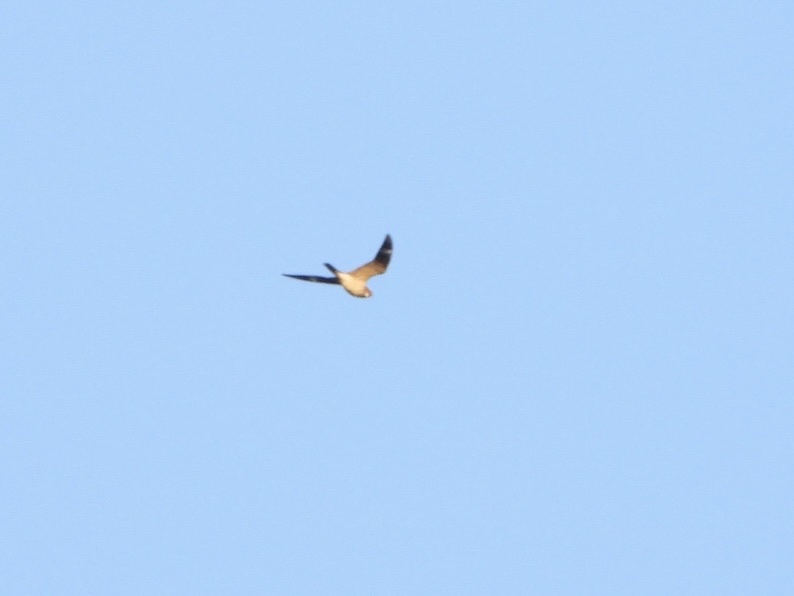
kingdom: Animalia
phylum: Chordata
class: Aves
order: Caprimulgiformes
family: Caprimulgidae
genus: Chordeiles
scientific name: Chordeiles minor
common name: Common nighthawk
